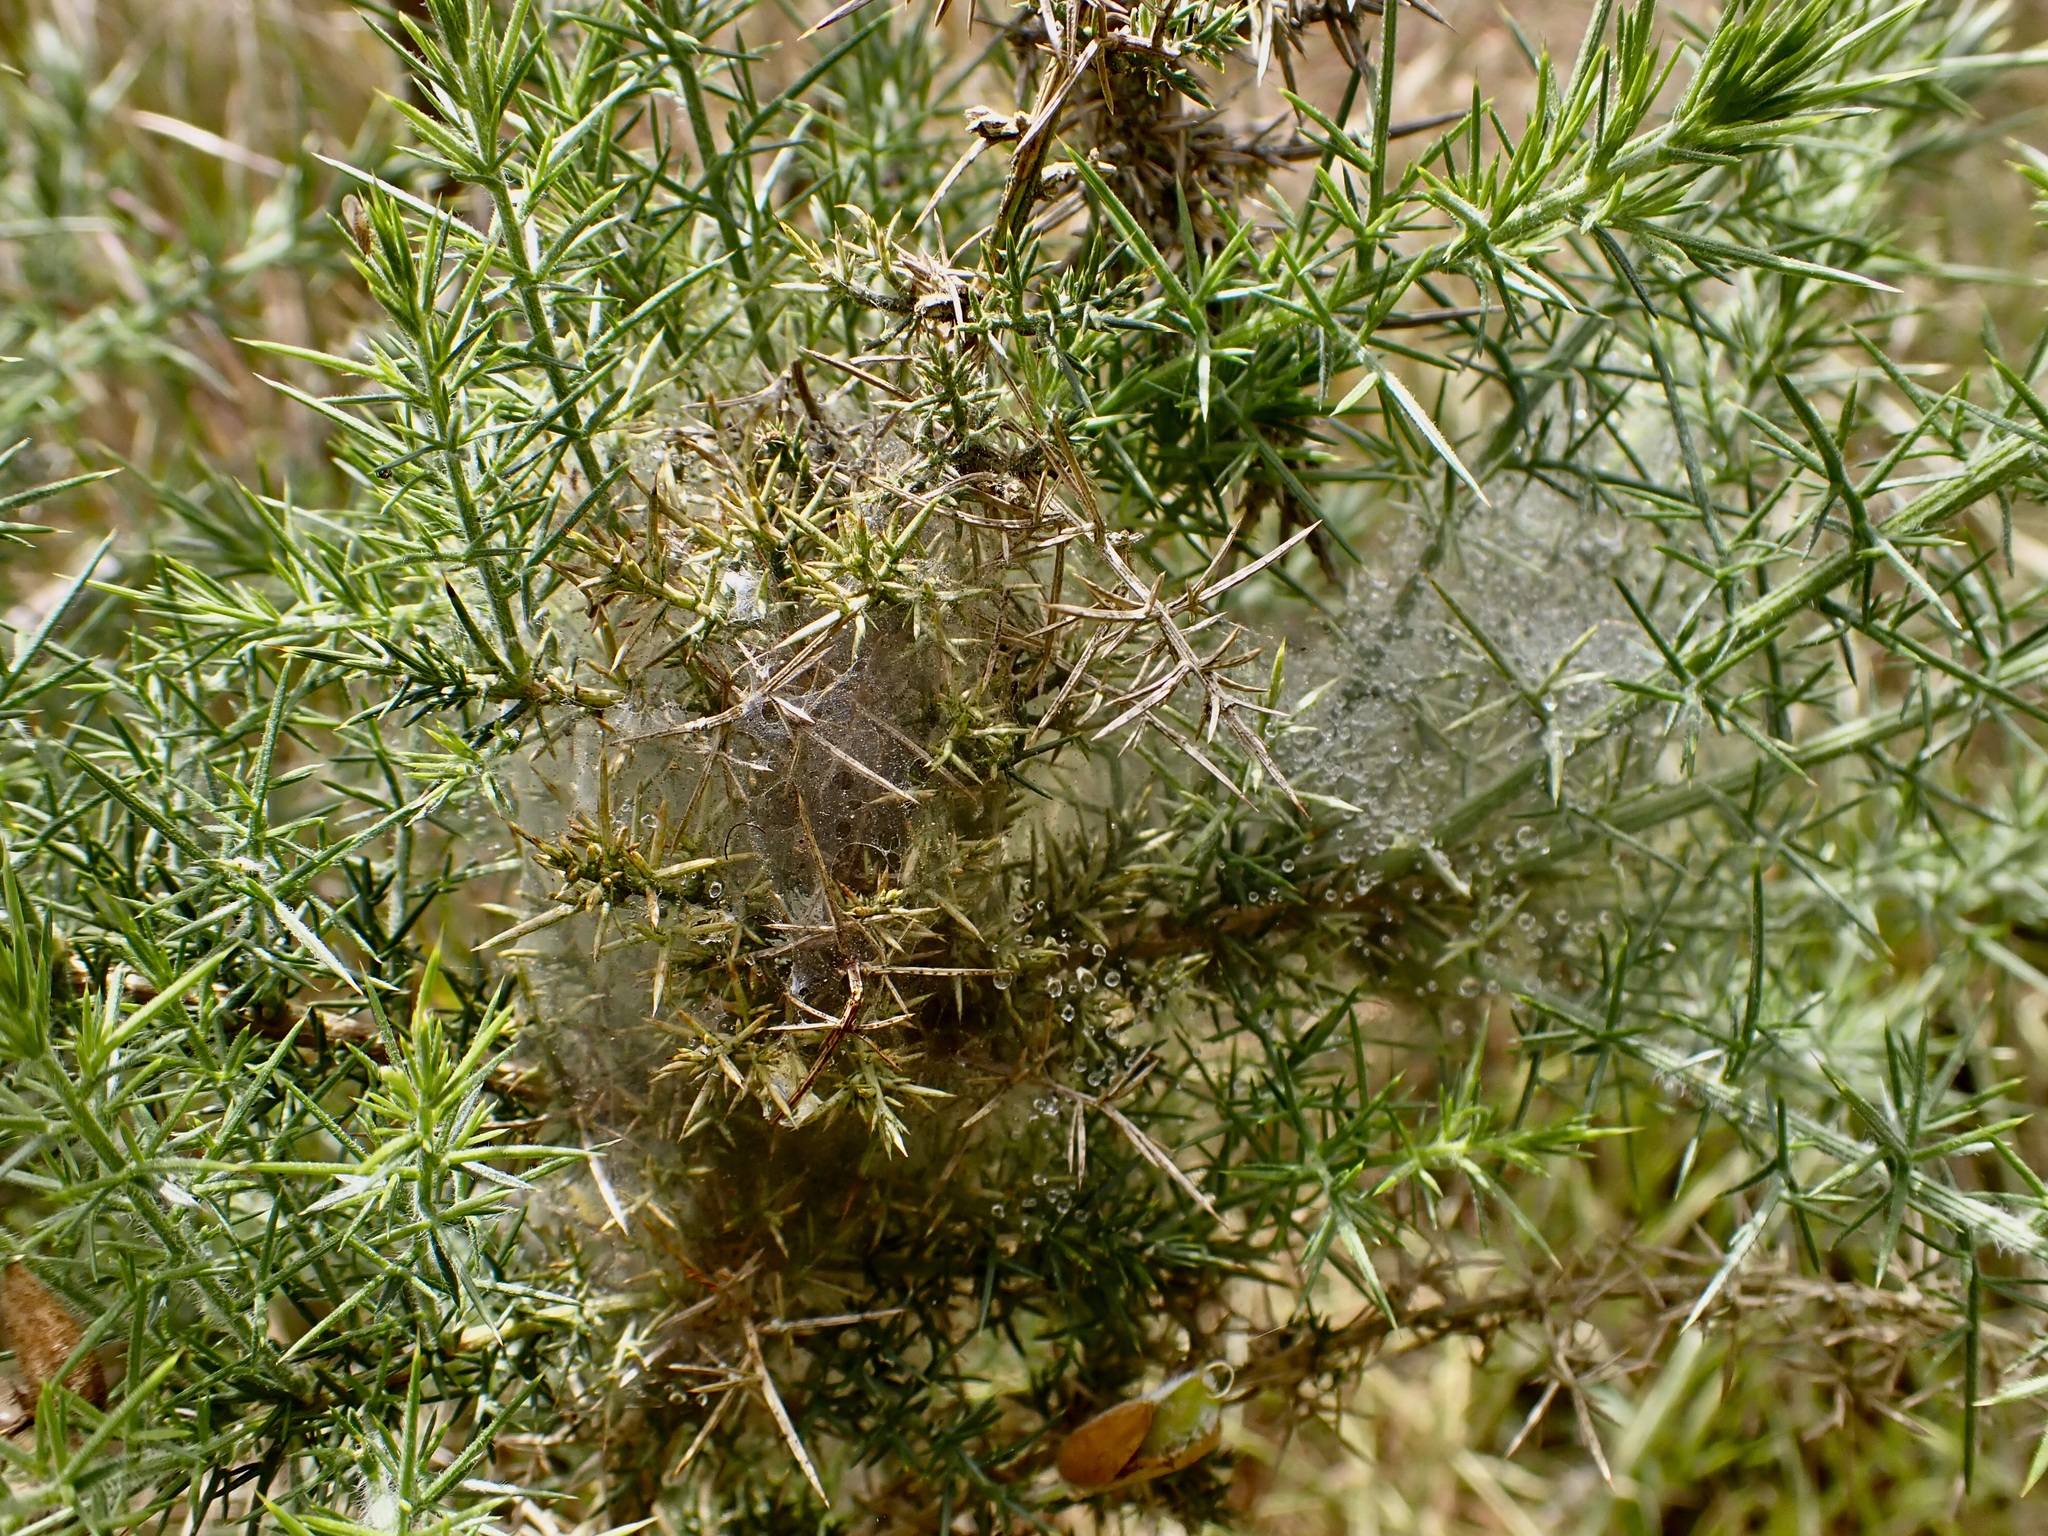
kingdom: Animalia
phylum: Arthropoda
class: Arachnida
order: Trombidiformes
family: Tetranychidae
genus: Tetranychus
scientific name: Tetranychus lintearius
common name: Gorse spider mite
